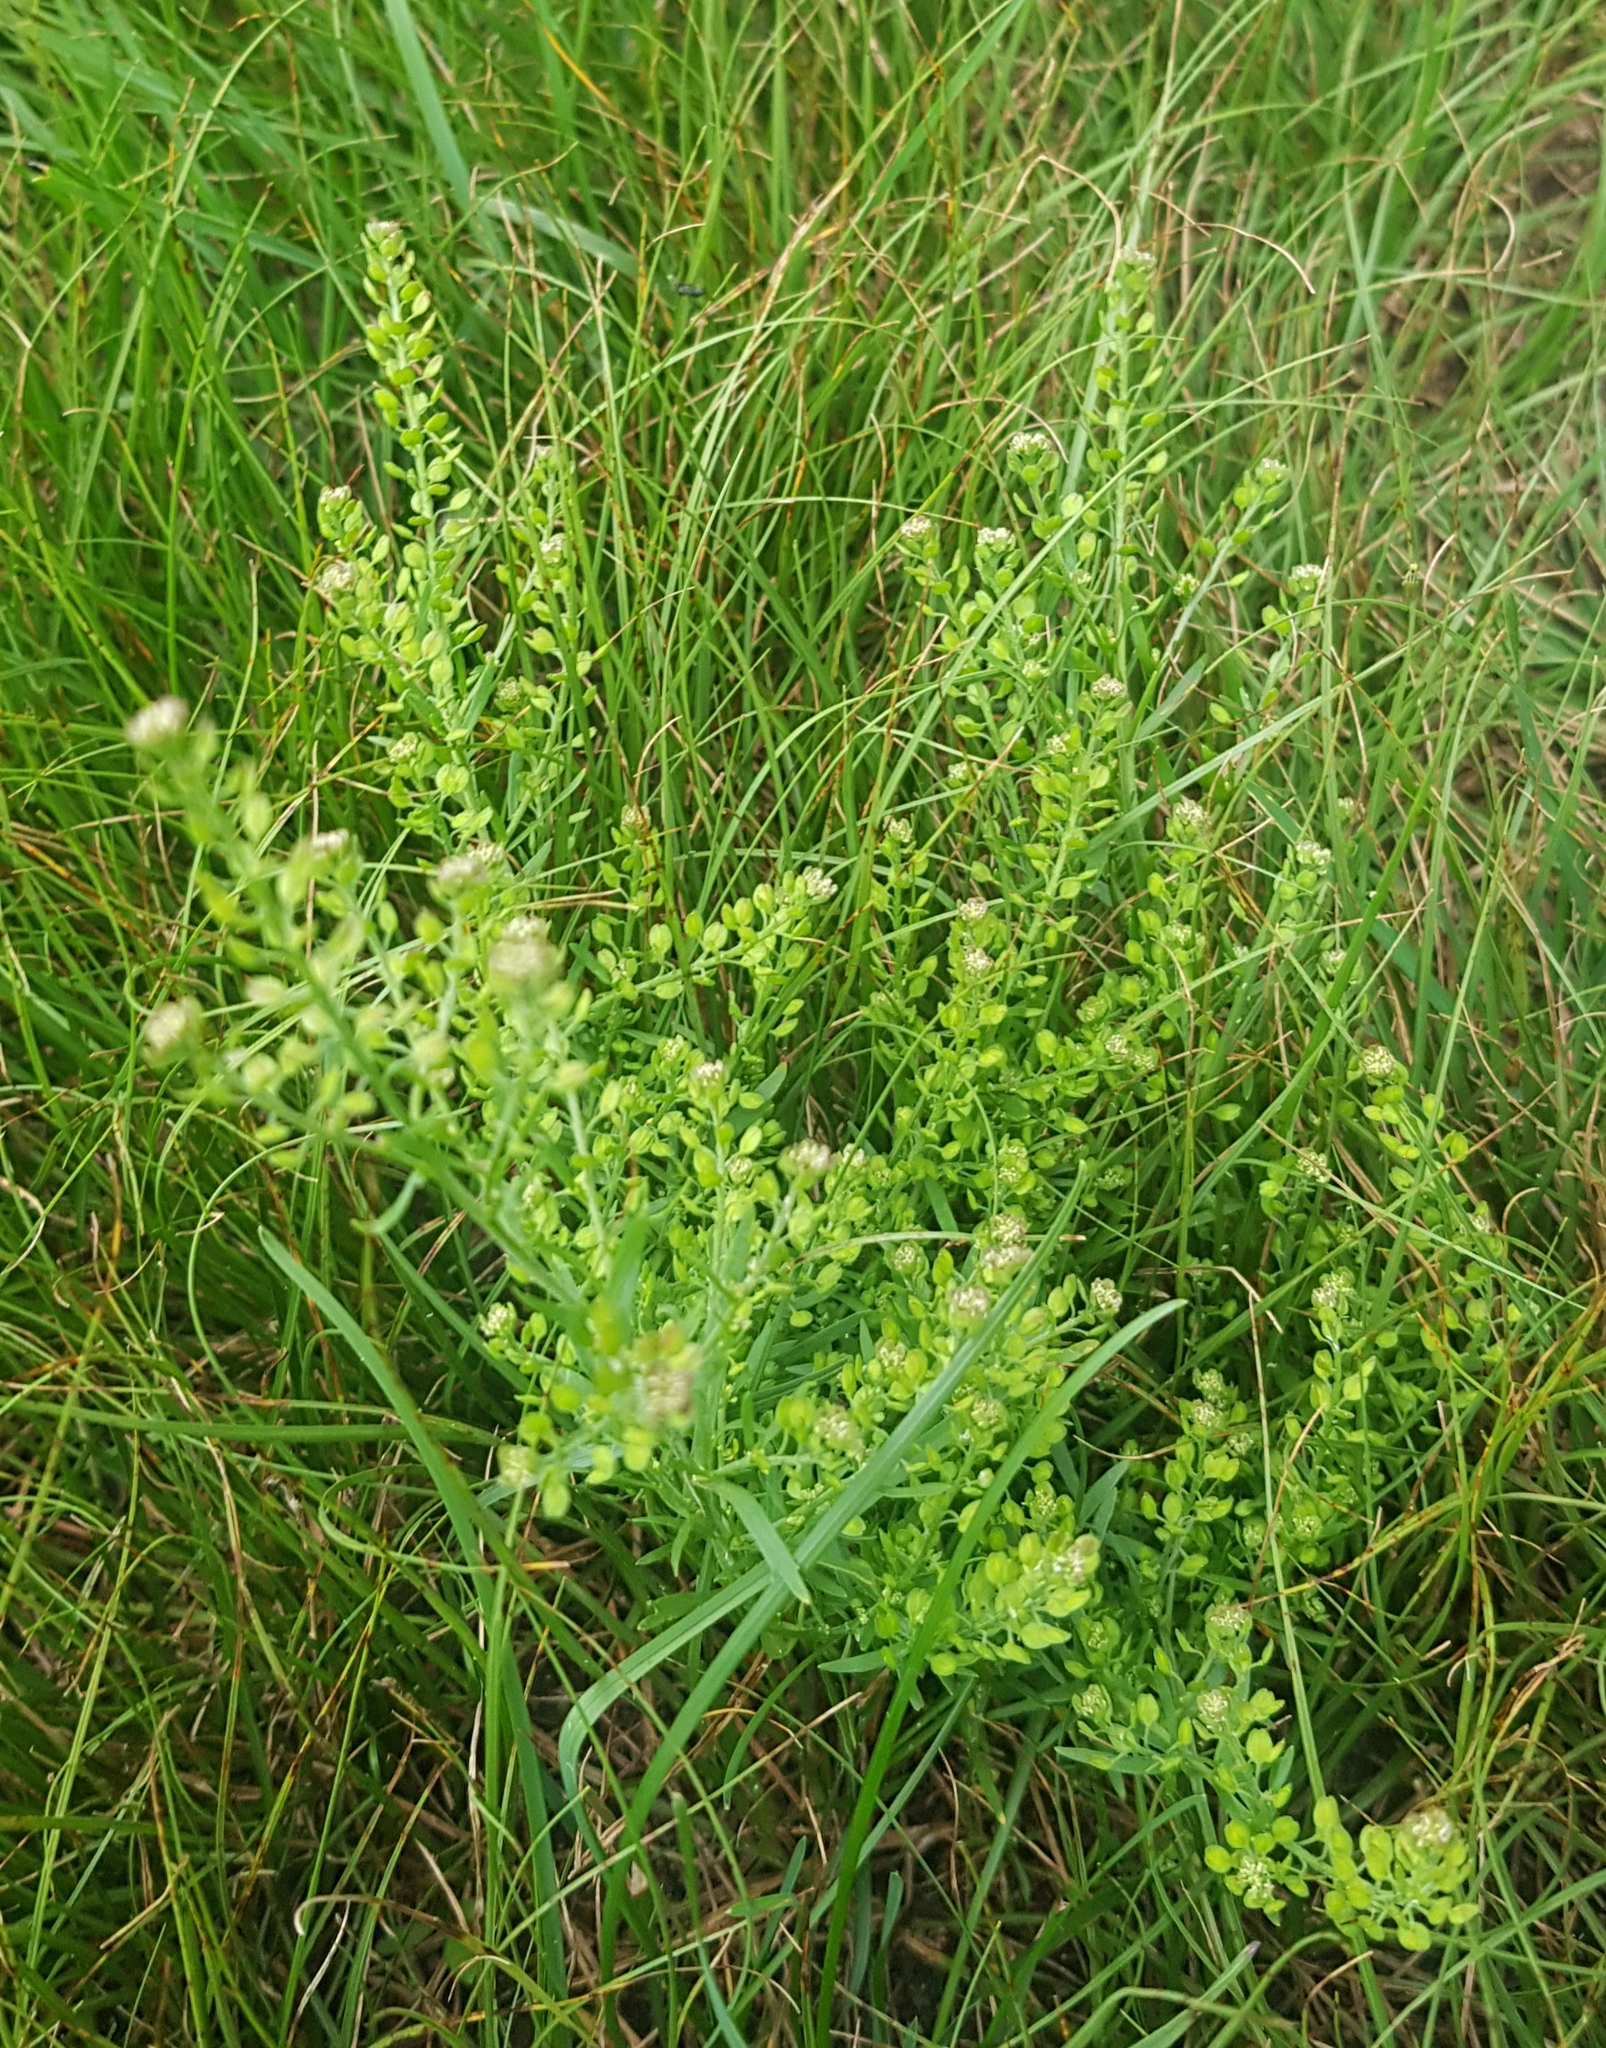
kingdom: Plantae
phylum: Tracheophyta
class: Magnoliopsida
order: Brassicales
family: Brassicaceae
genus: Lepidium
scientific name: Lepidium densiflorum
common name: Miner's pepperwort
